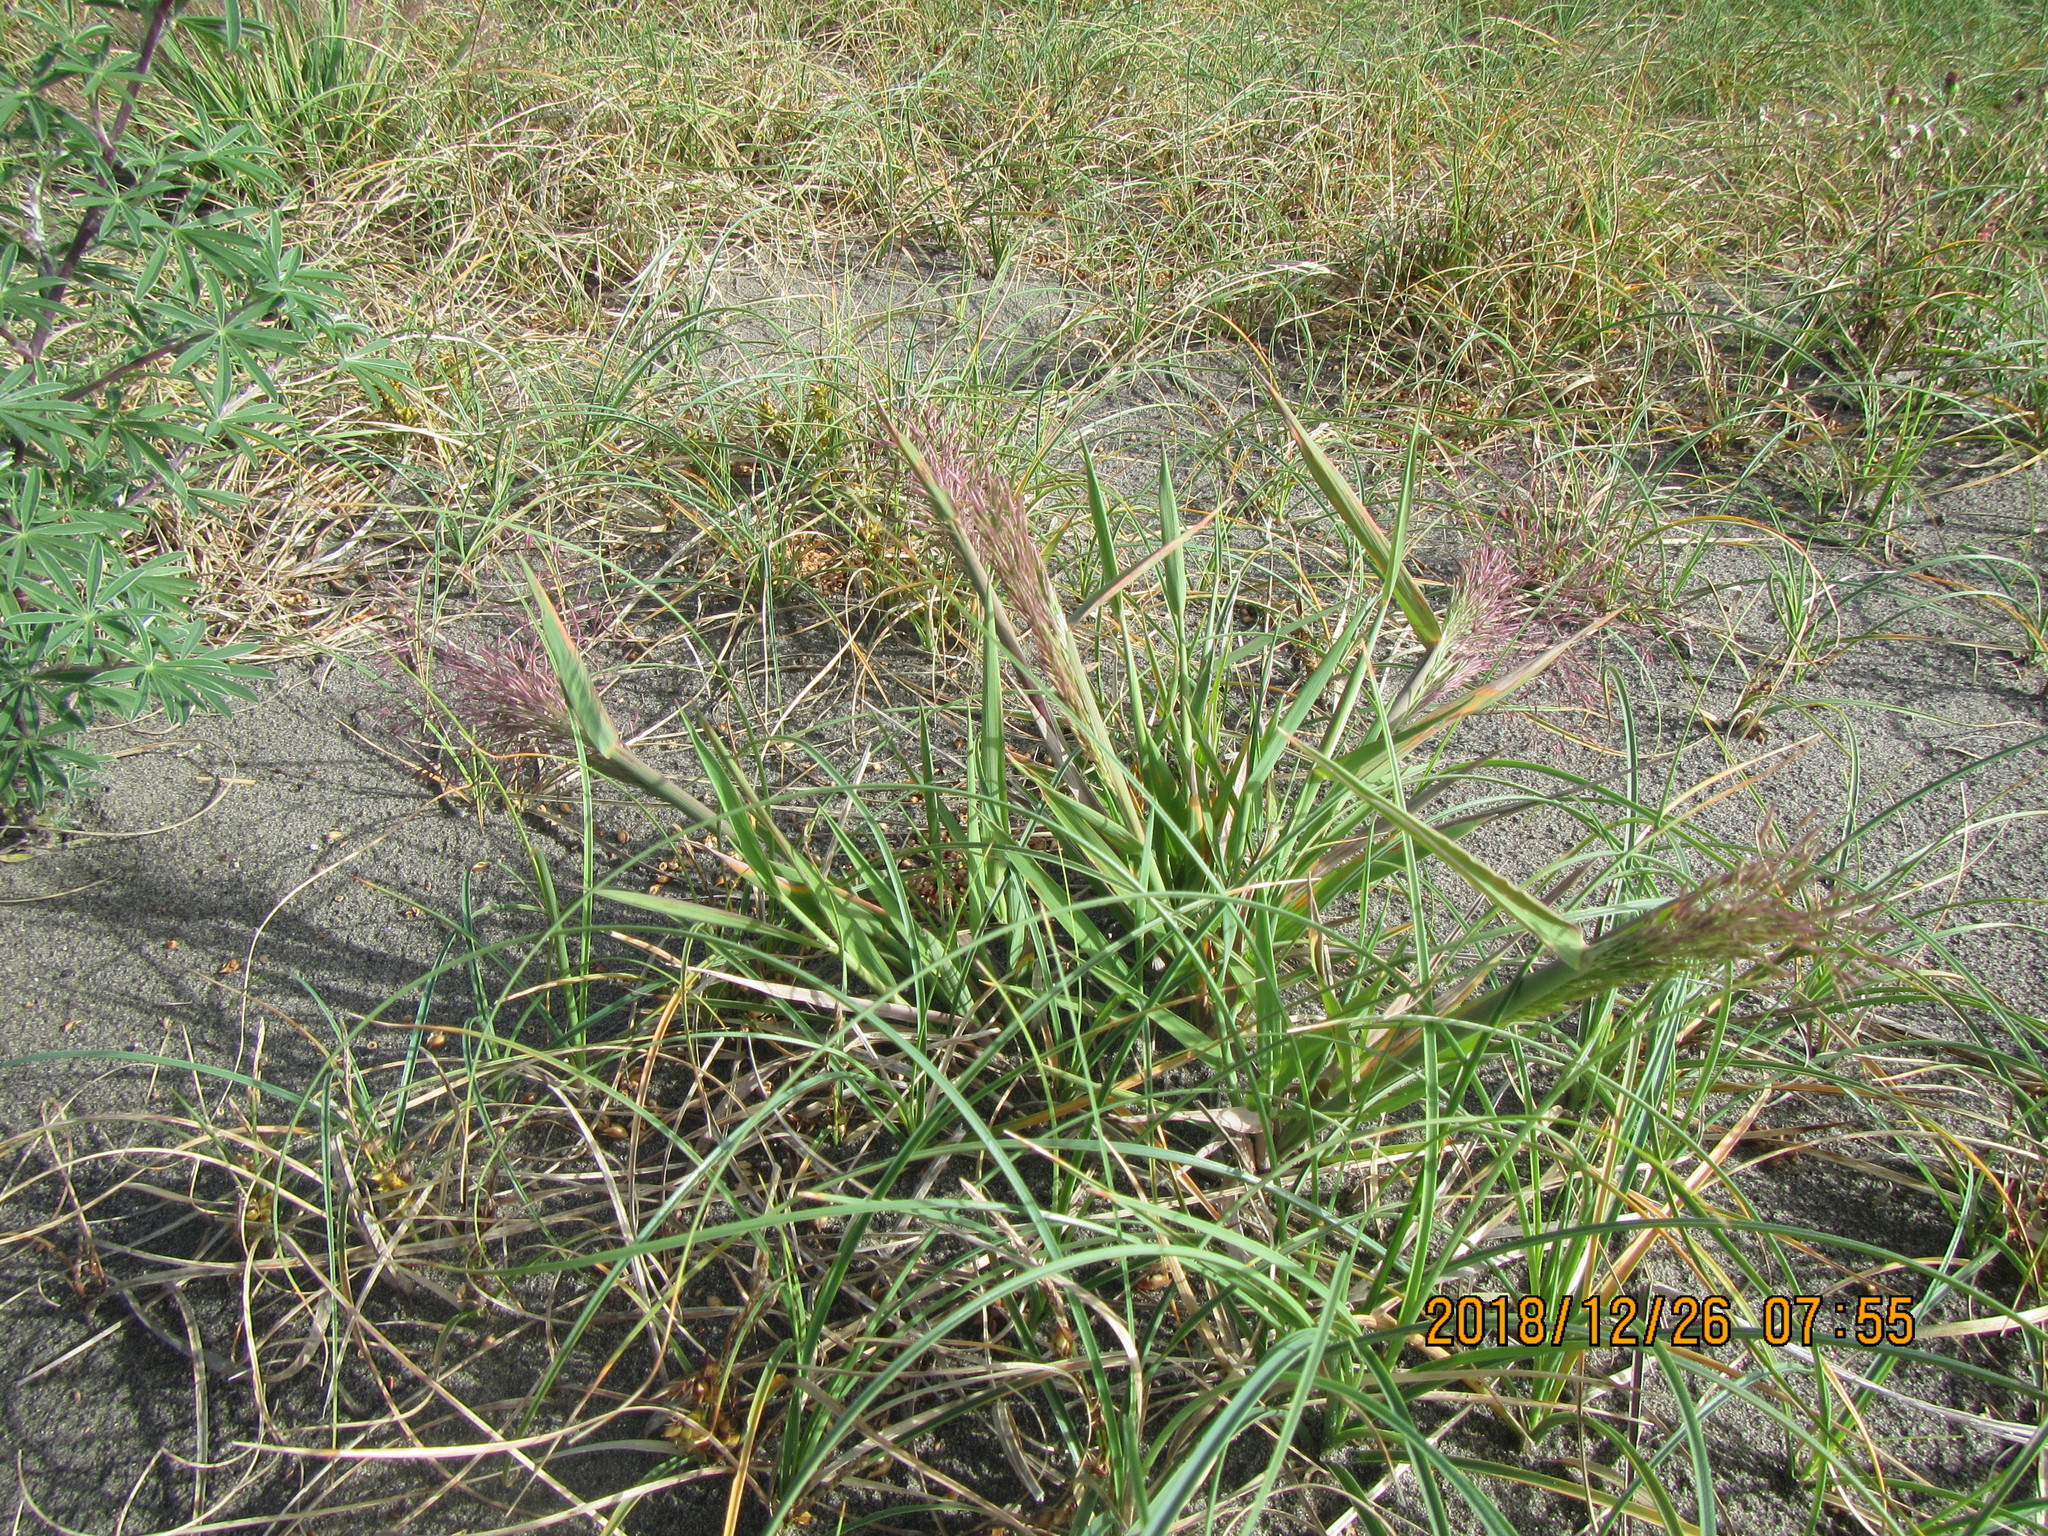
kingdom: Plantae
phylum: Tracheophyta
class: Liliopsida
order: Poales
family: Poaceae
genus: Lachnagrostis
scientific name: Lachnagrostis billardierei
